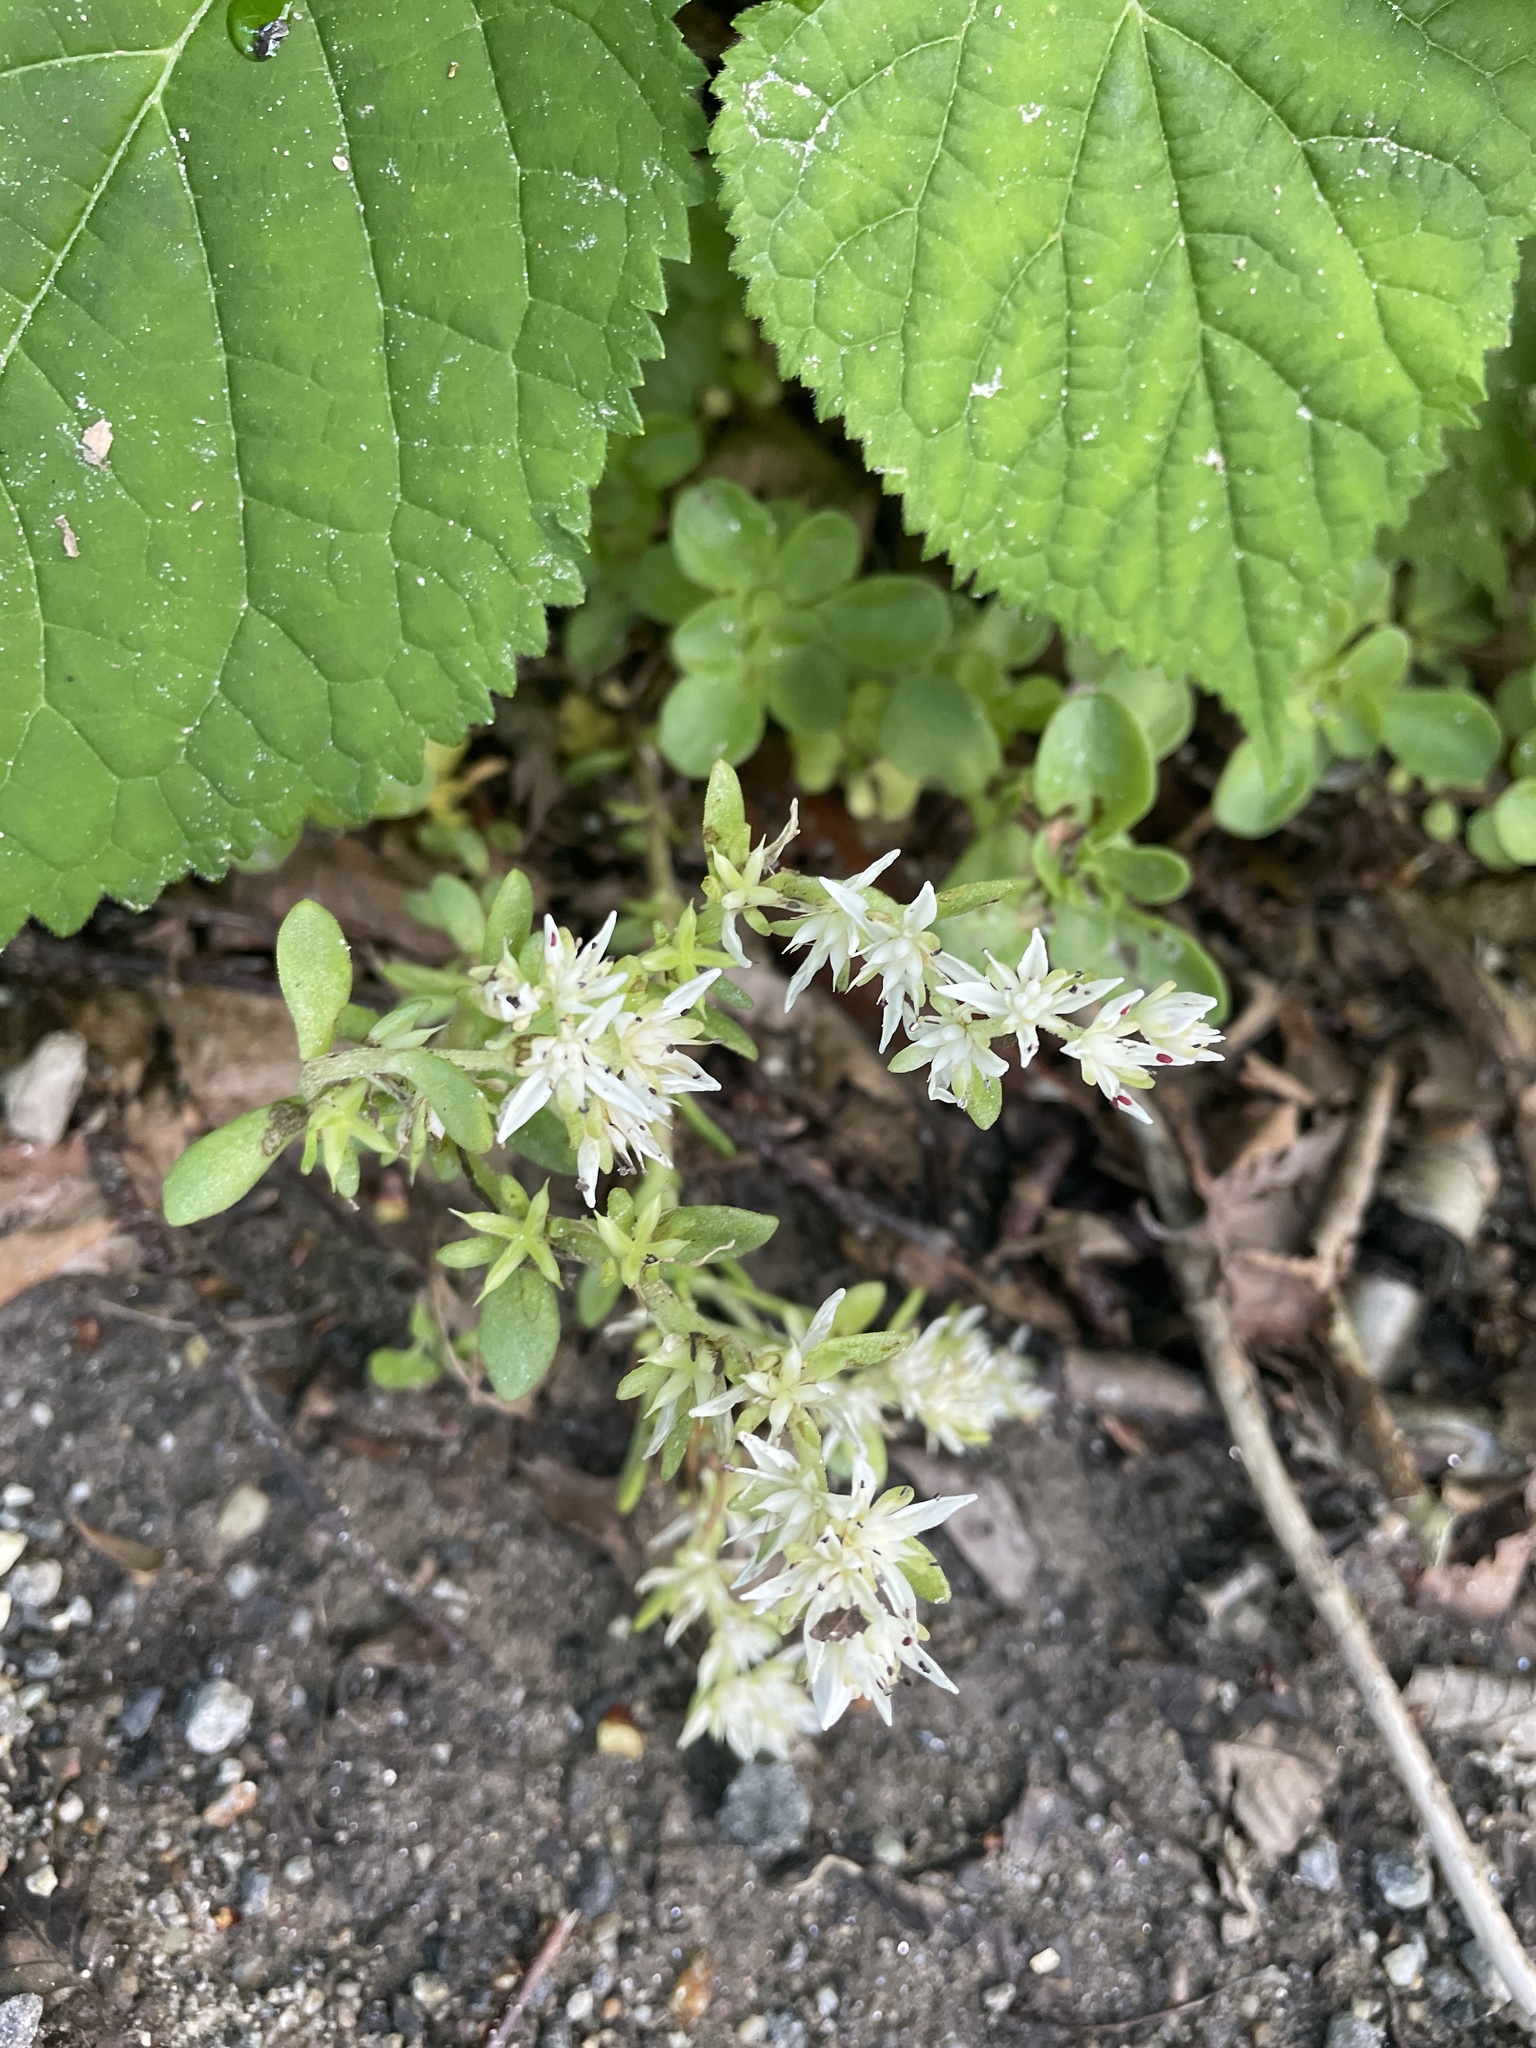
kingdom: Plantae
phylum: Tracheophyta
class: Magnoliopsida
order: Saxifragales
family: Crassulaceae
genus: Sedum
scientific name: Sedum ternatum
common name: Wild stonecrop
